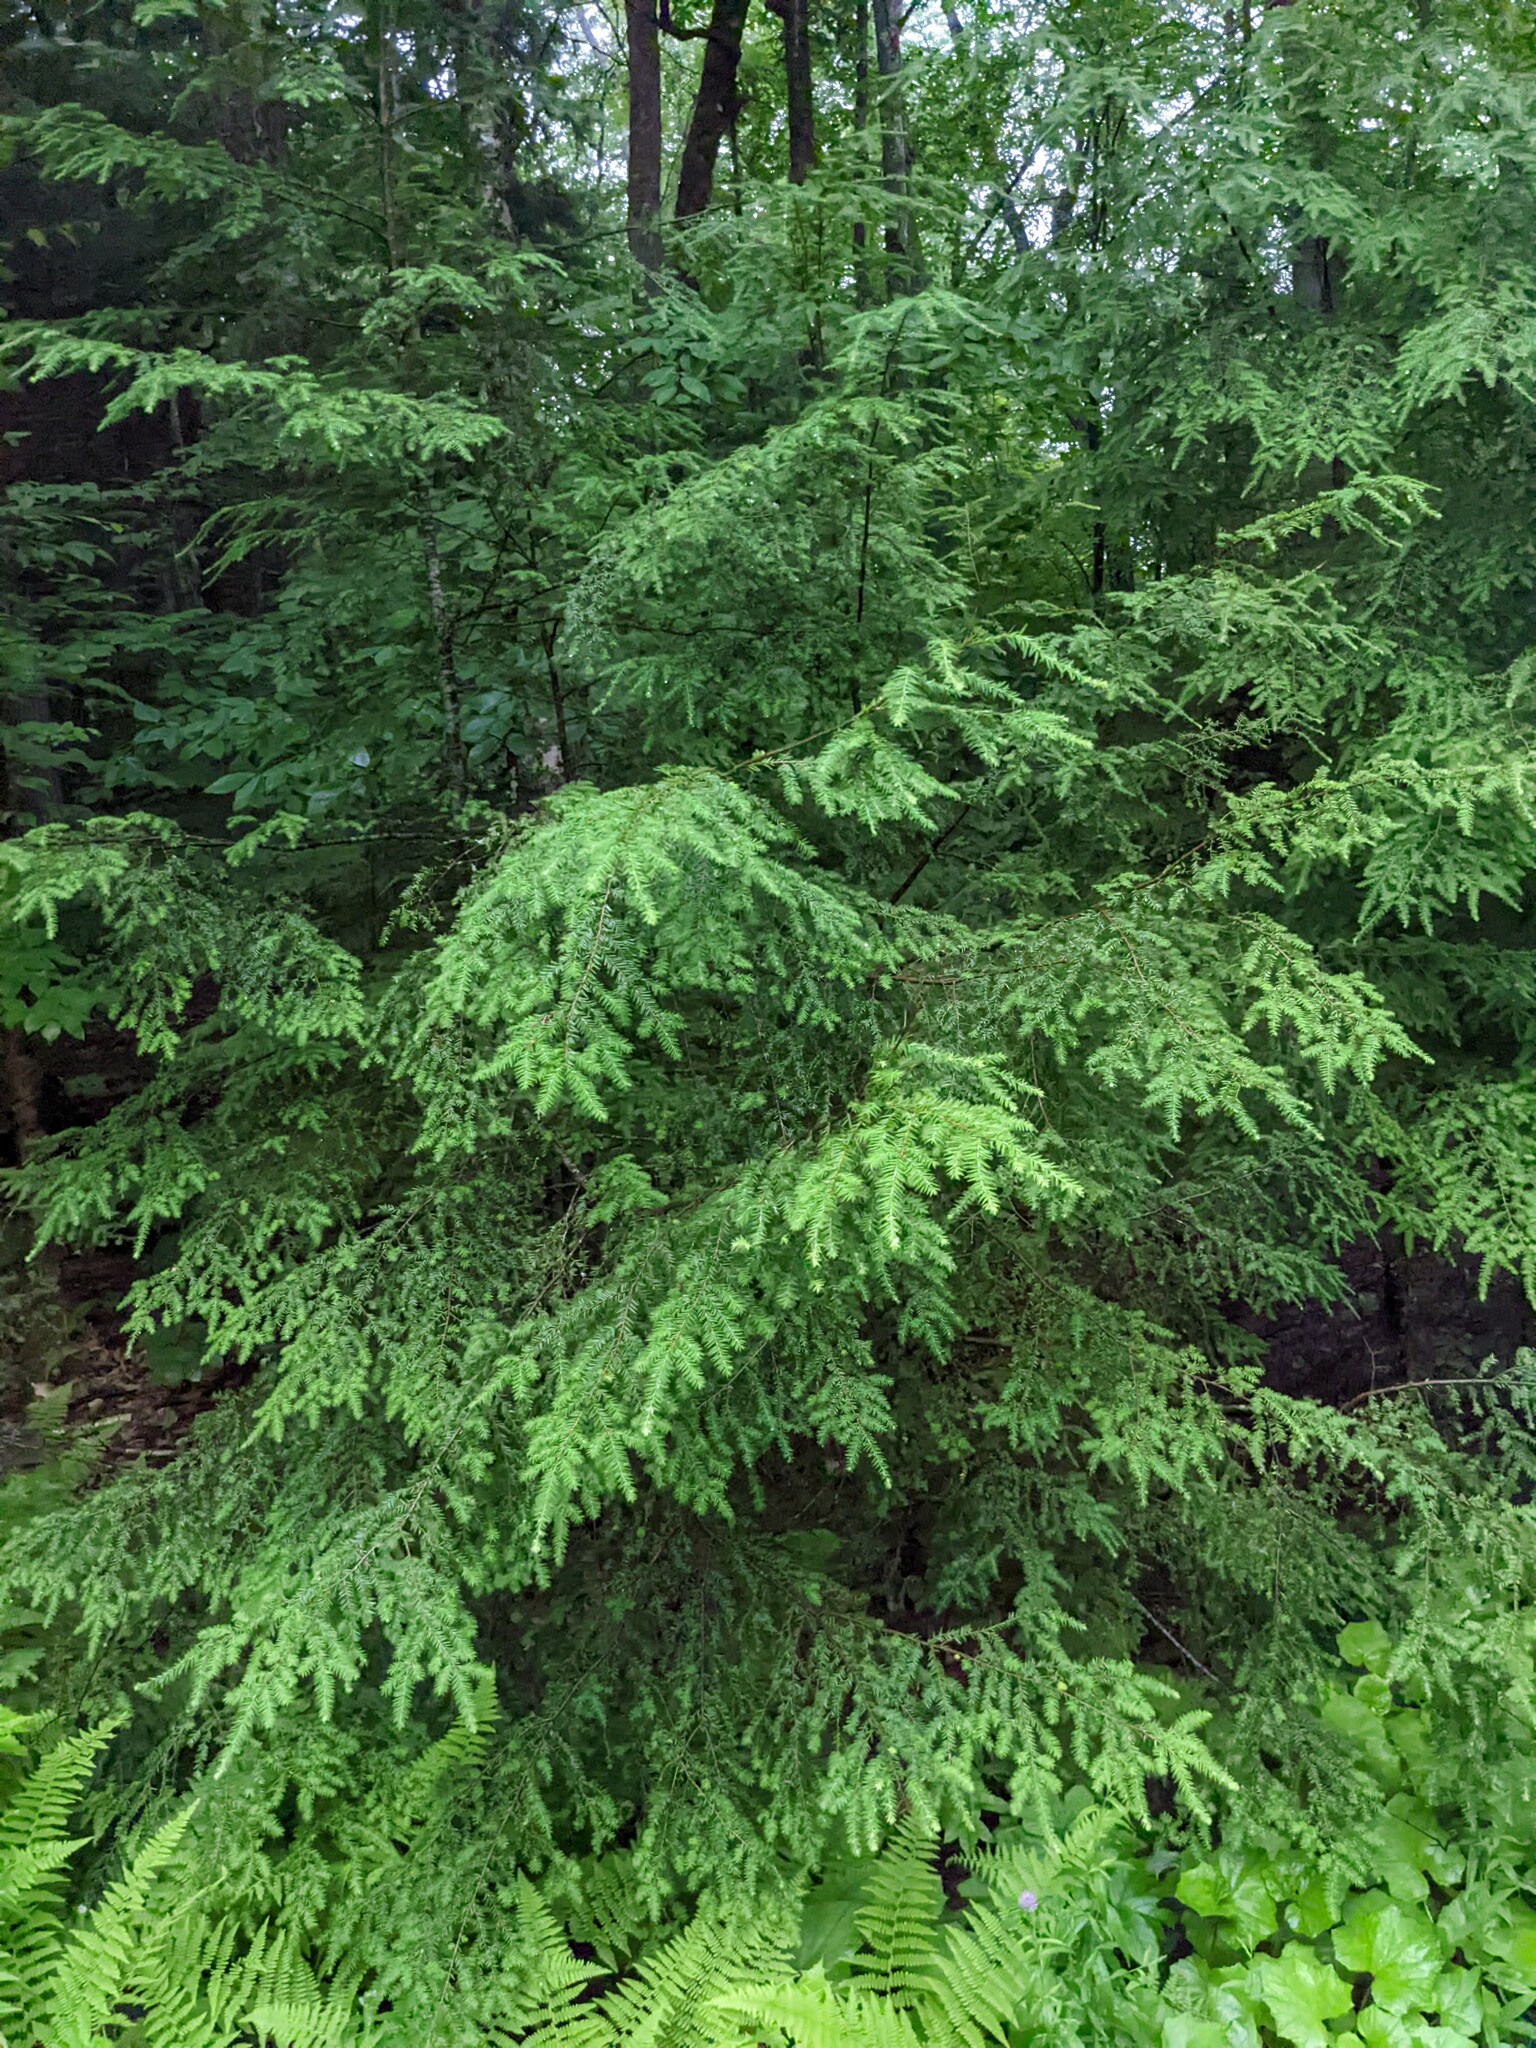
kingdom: Plantae
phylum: Tracheophyta
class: Pinopsida
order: Pinales
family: Pinaceae
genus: Tsuga
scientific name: Tsuga canadensis
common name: Eastern hemlock
